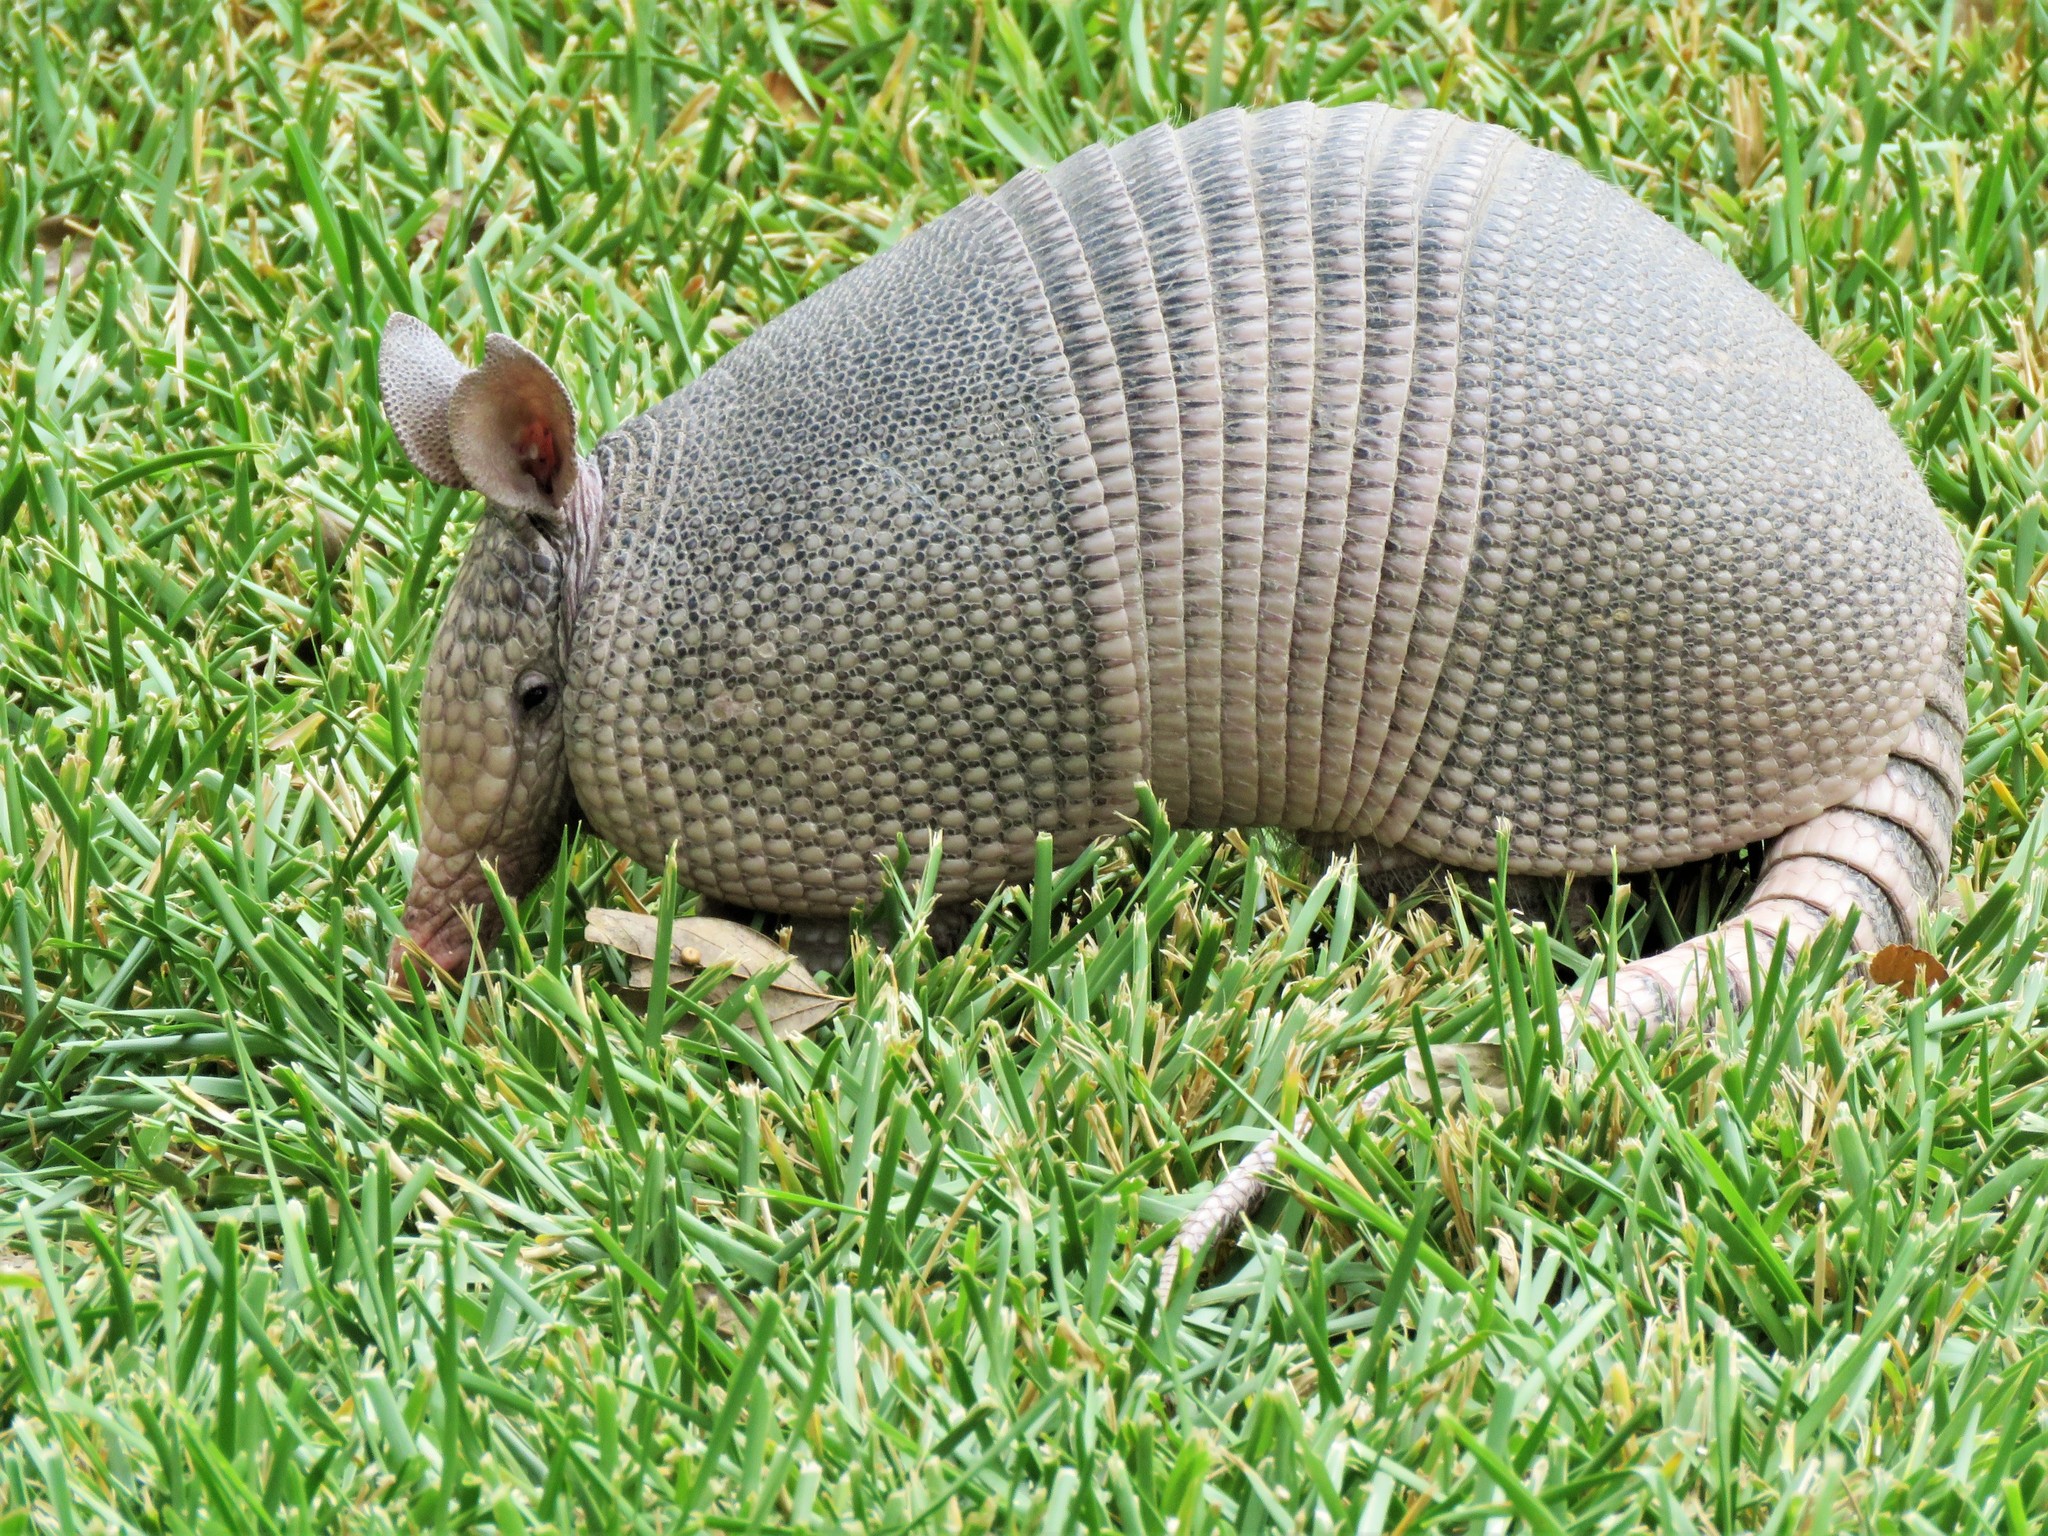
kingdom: Animalia
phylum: Chordata
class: Mammalia
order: Cingulata
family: Dasypodidae
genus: Dasypus
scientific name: Dasypus novemcinctus
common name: Nine-banded armadillo
